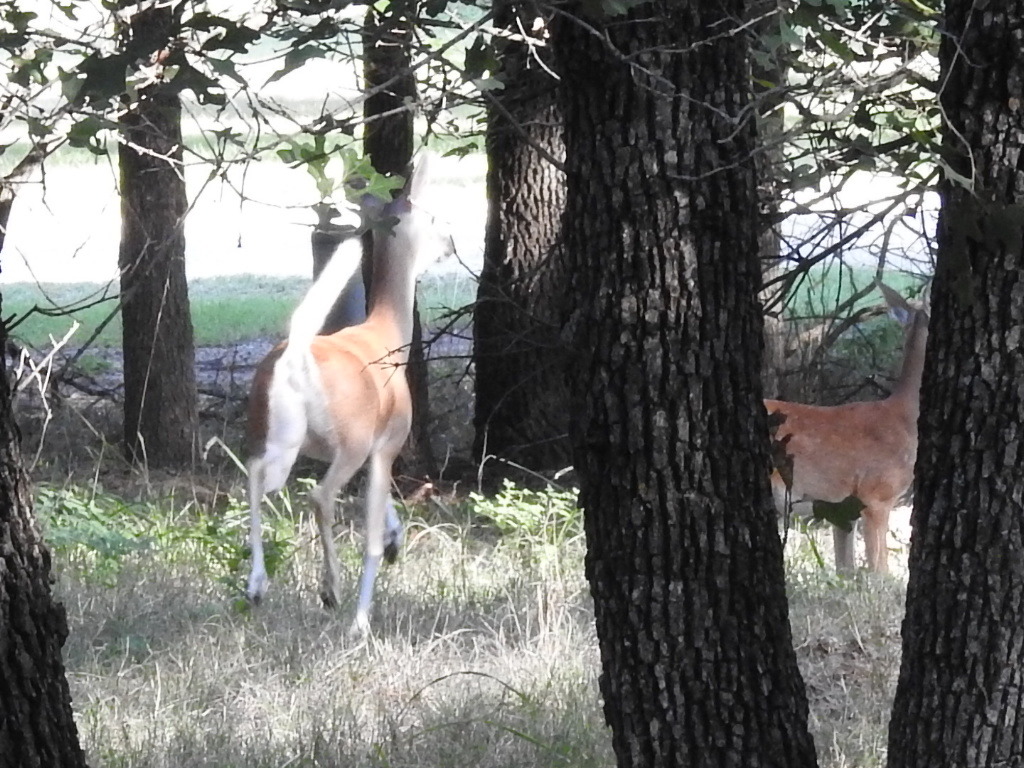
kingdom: Animalia
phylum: Chordata
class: Mammalia
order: Artiodactyla
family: Cervidae
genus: Odocoileus
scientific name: Odocoileus virginianus
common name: White-tailed deer
